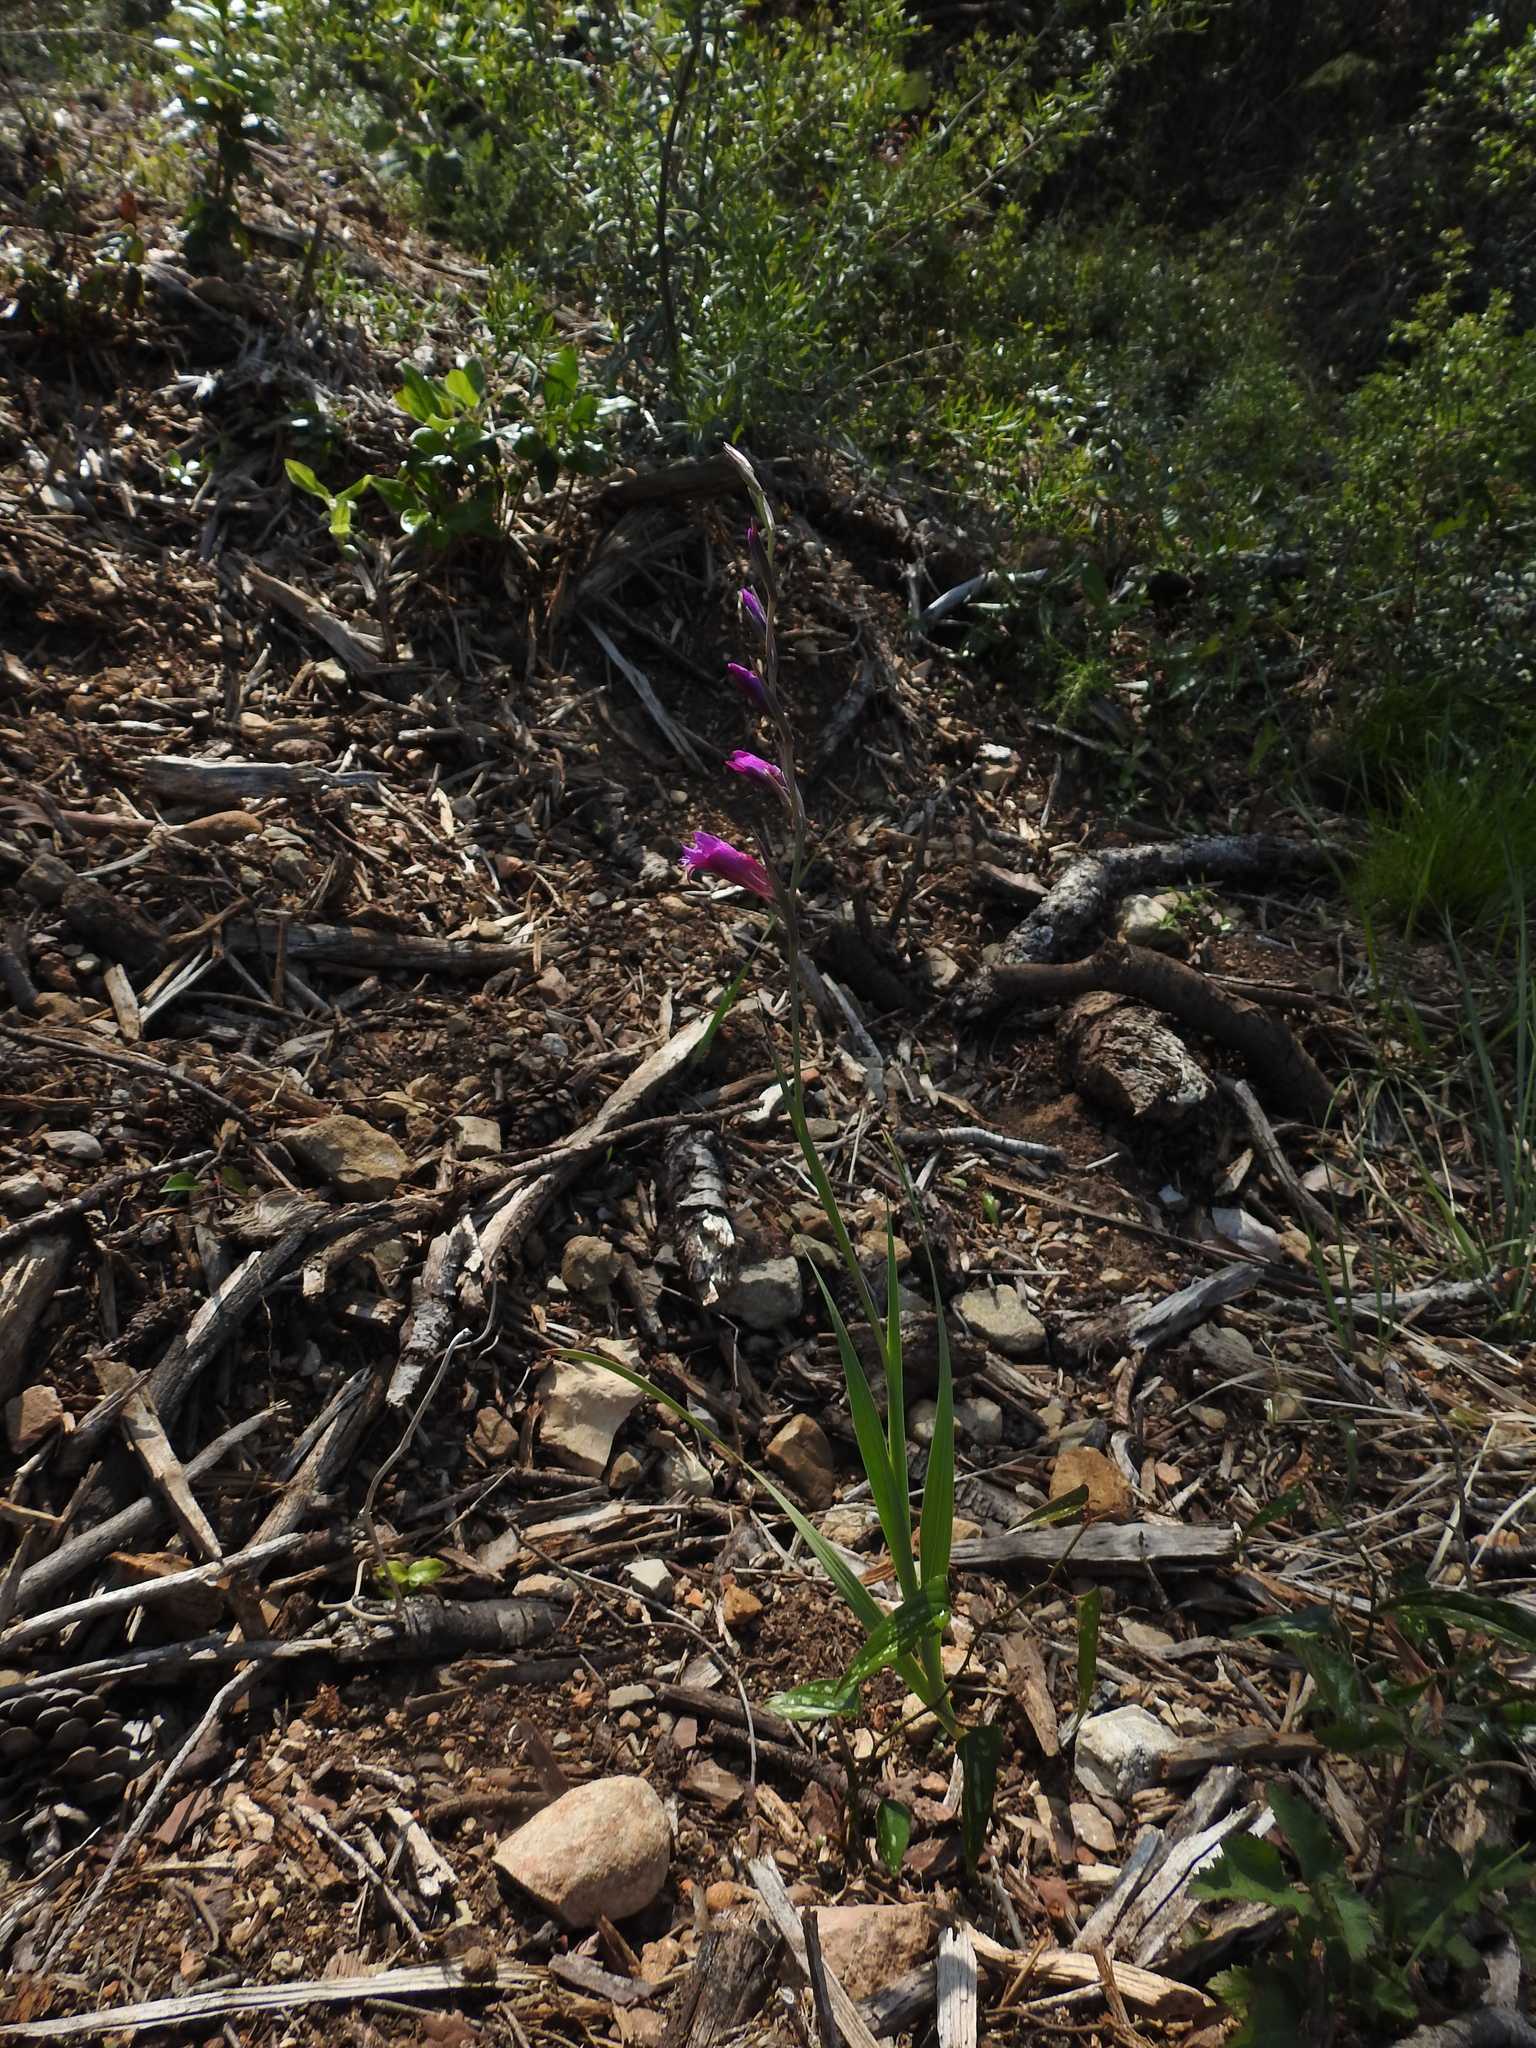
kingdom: Plantae
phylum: Tracheophyta
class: Liliopsida
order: Asparagales
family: Iridaceae
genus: Gladiolus
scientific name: Gladiolus dubius
